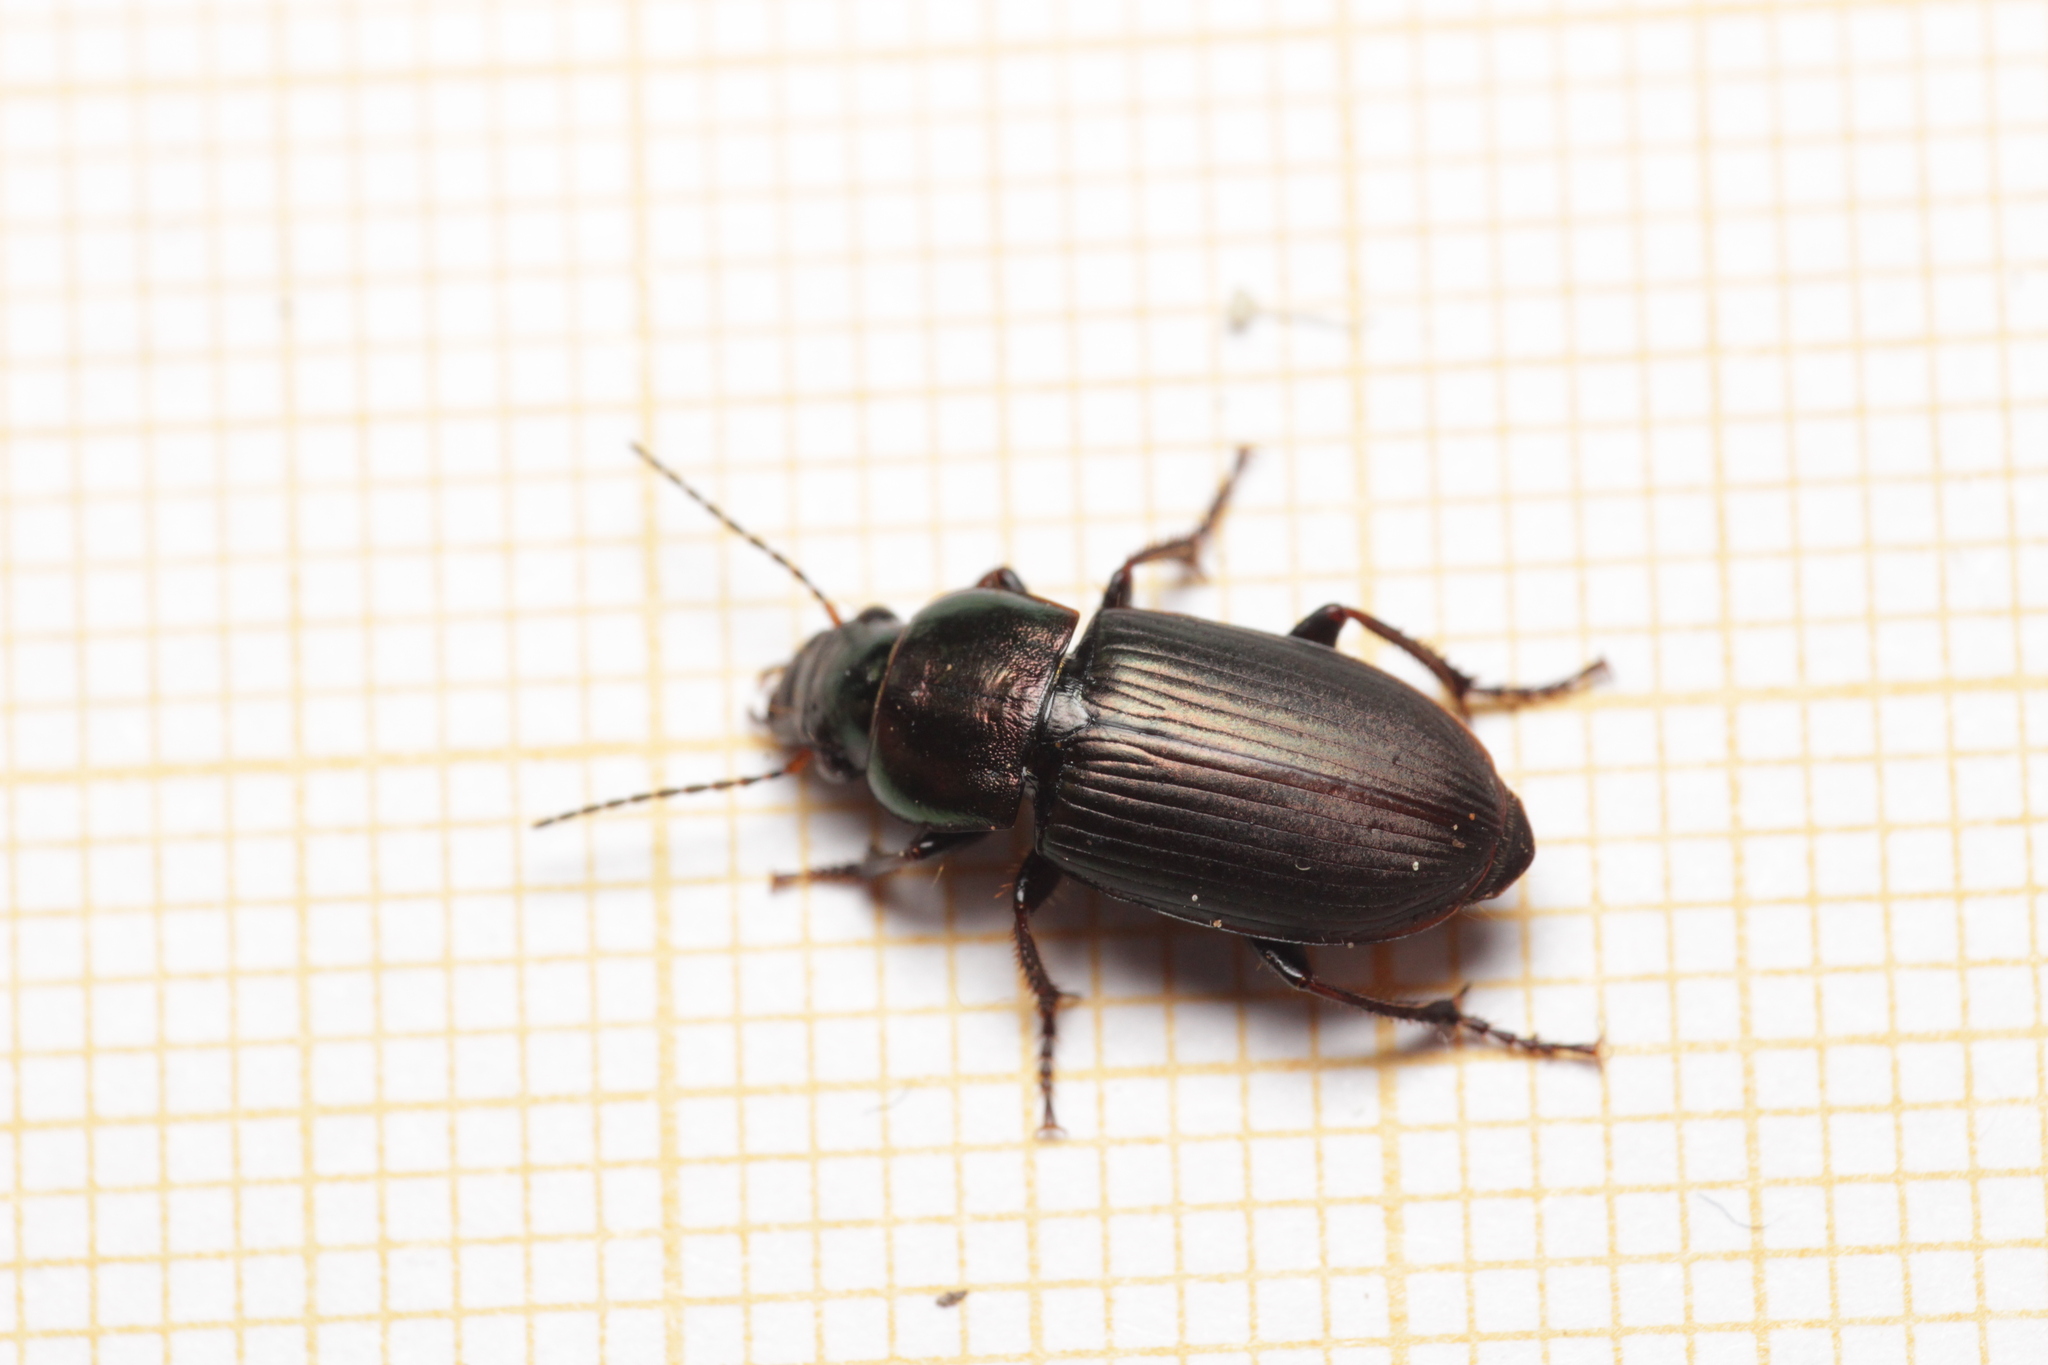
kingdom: Animalia
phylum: Arthropoda
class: Insecta
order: Coleoptera
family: Carabidae
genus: Harpalus
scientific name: Harpalus distinguendus
